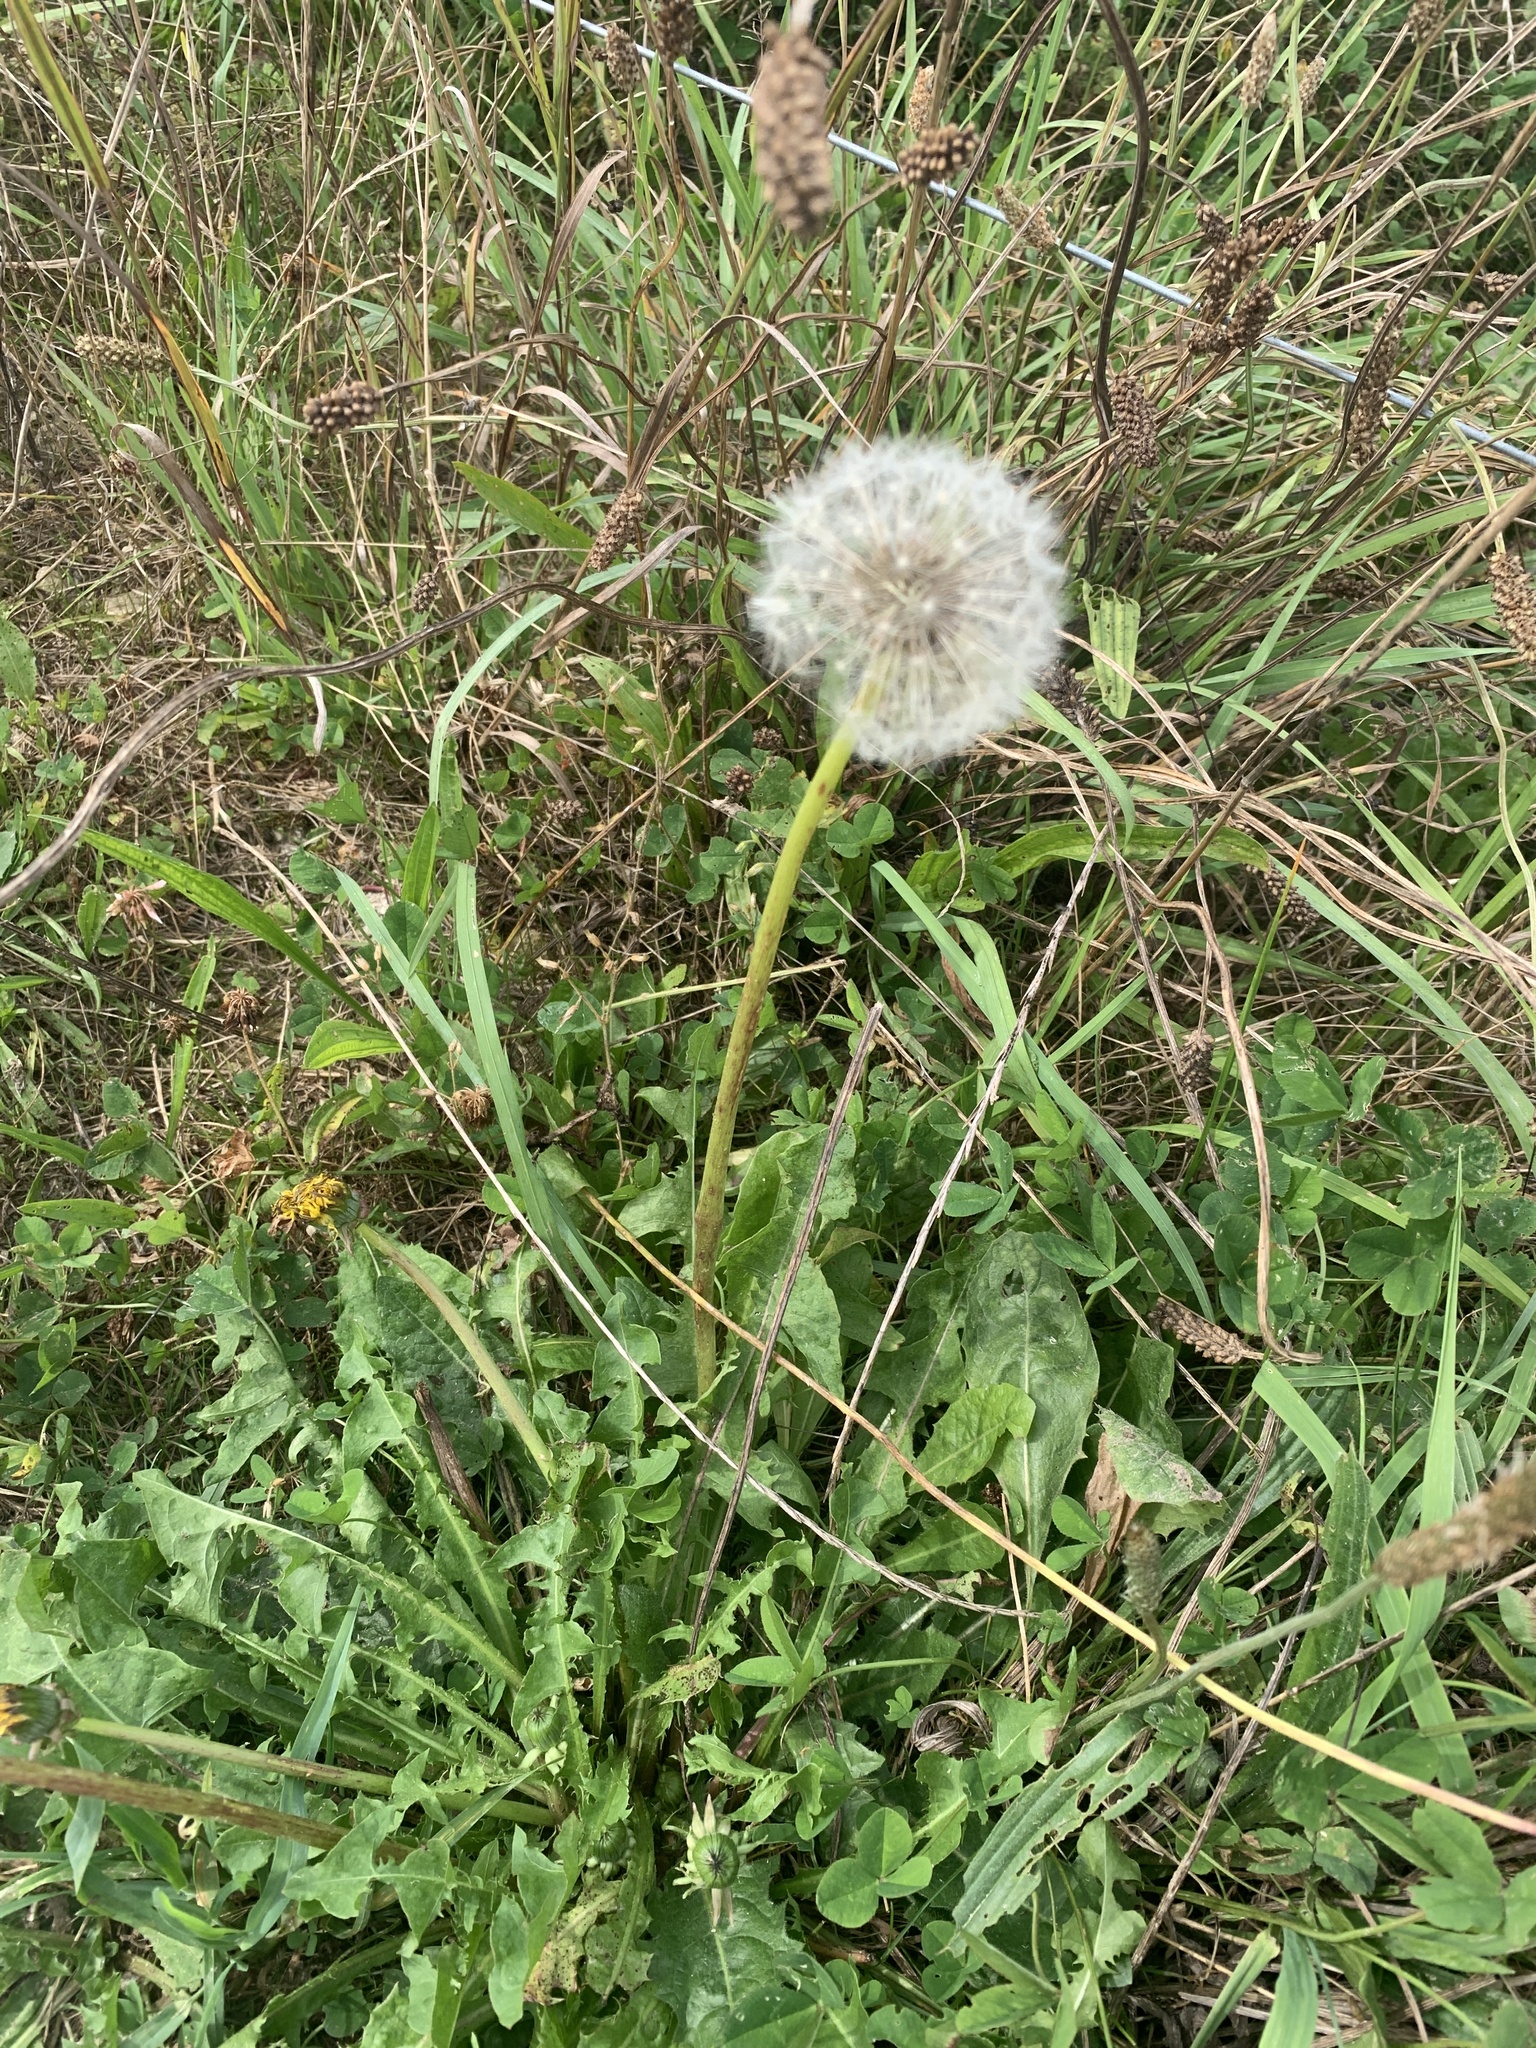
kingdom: Plantae
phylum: Tracheophyta
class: Magnoliopsida
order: Asterales
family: Asteraceae
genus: Taraxacum
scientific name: Taraxacum officinale
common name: Common dandelion
